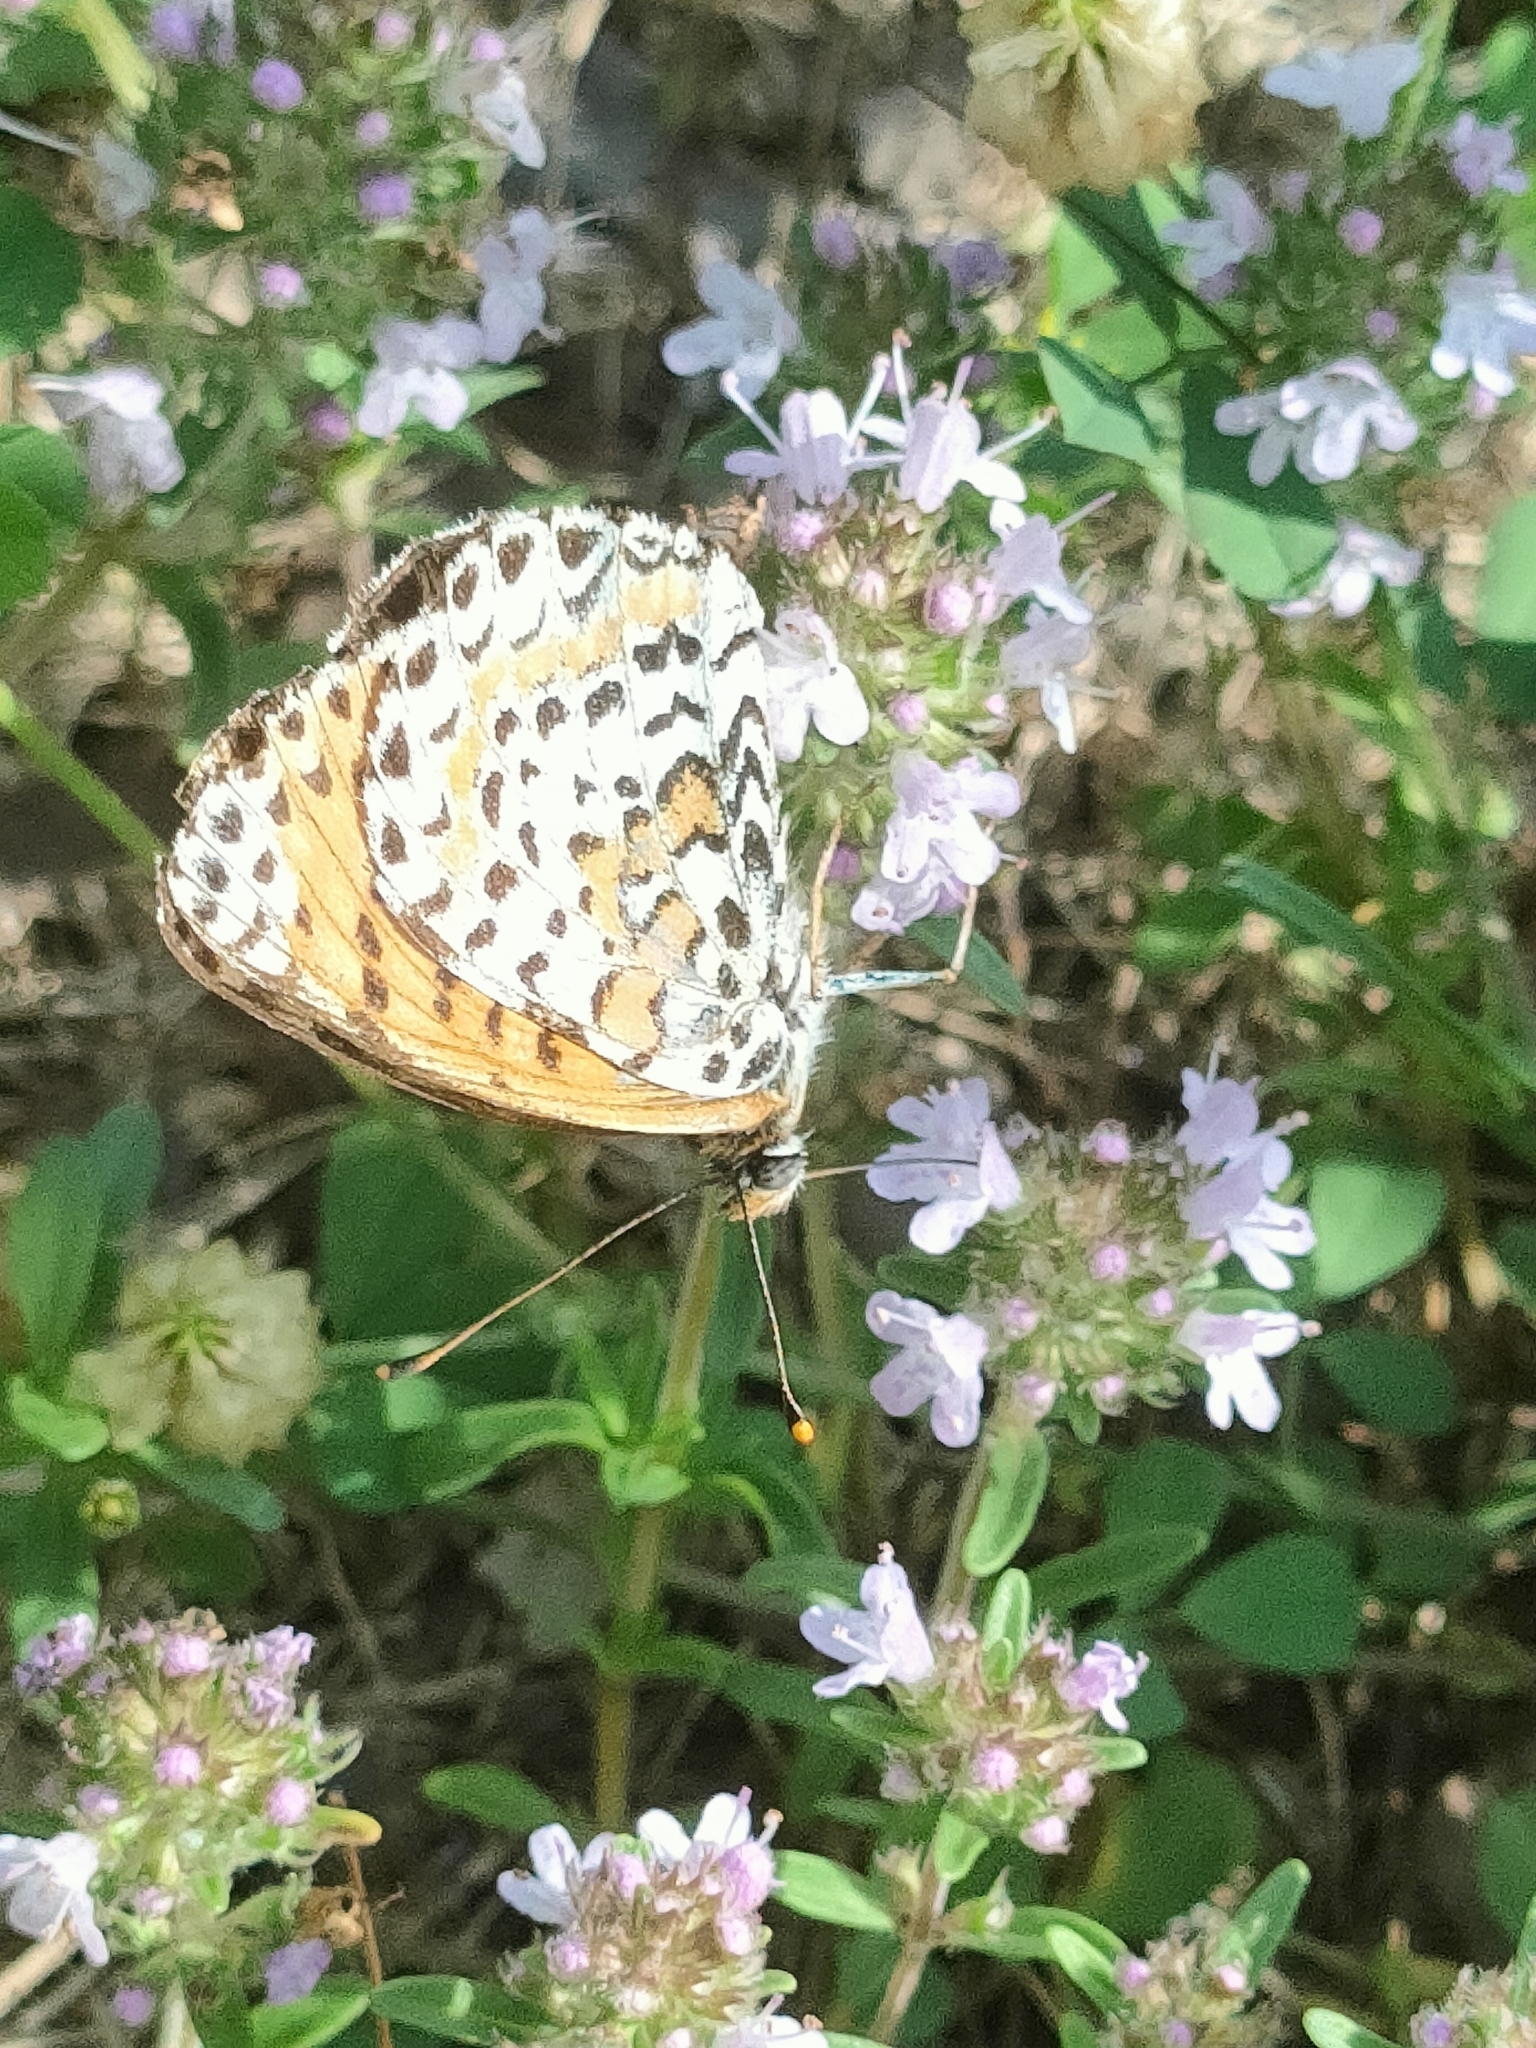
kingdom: Animalia
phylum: Arthropoda
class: Insecta
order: Lepidoptera
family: Nymphalidae
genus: Melitaea
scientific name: Melitaea didyma
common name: Spotted fritillary
